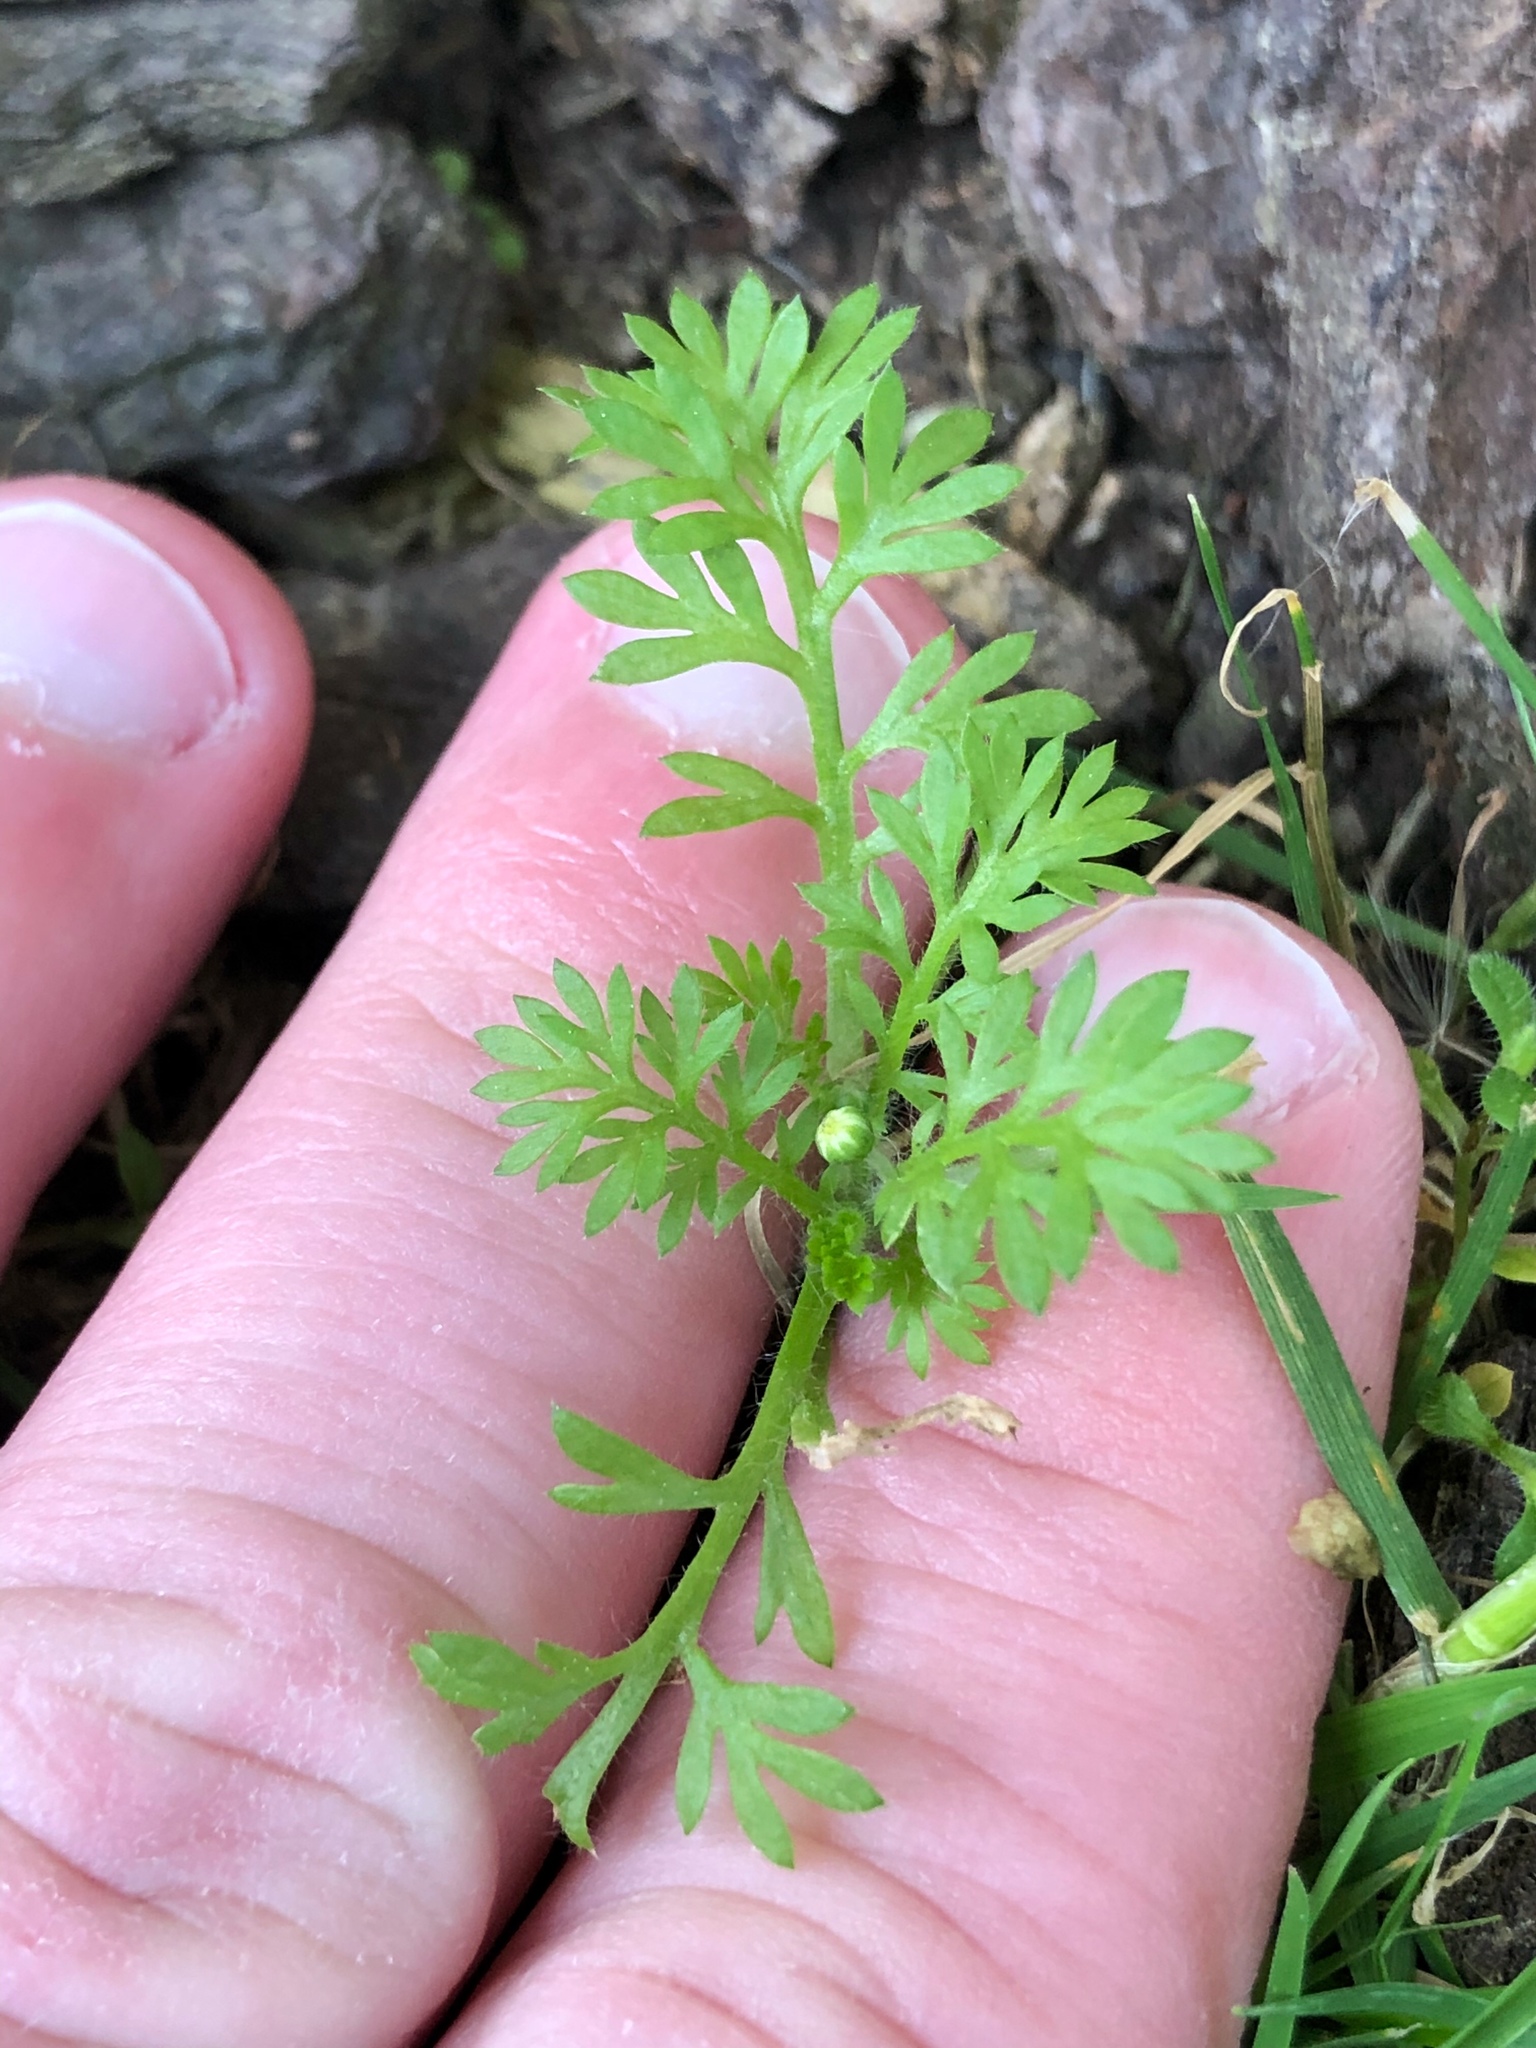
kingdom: Plantae
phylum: Tracheophyta
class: Magnoliopsida
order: Asterales
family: Asteraceae
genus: Cotula
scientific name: Cotula australis
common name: Australian waterbuttons
